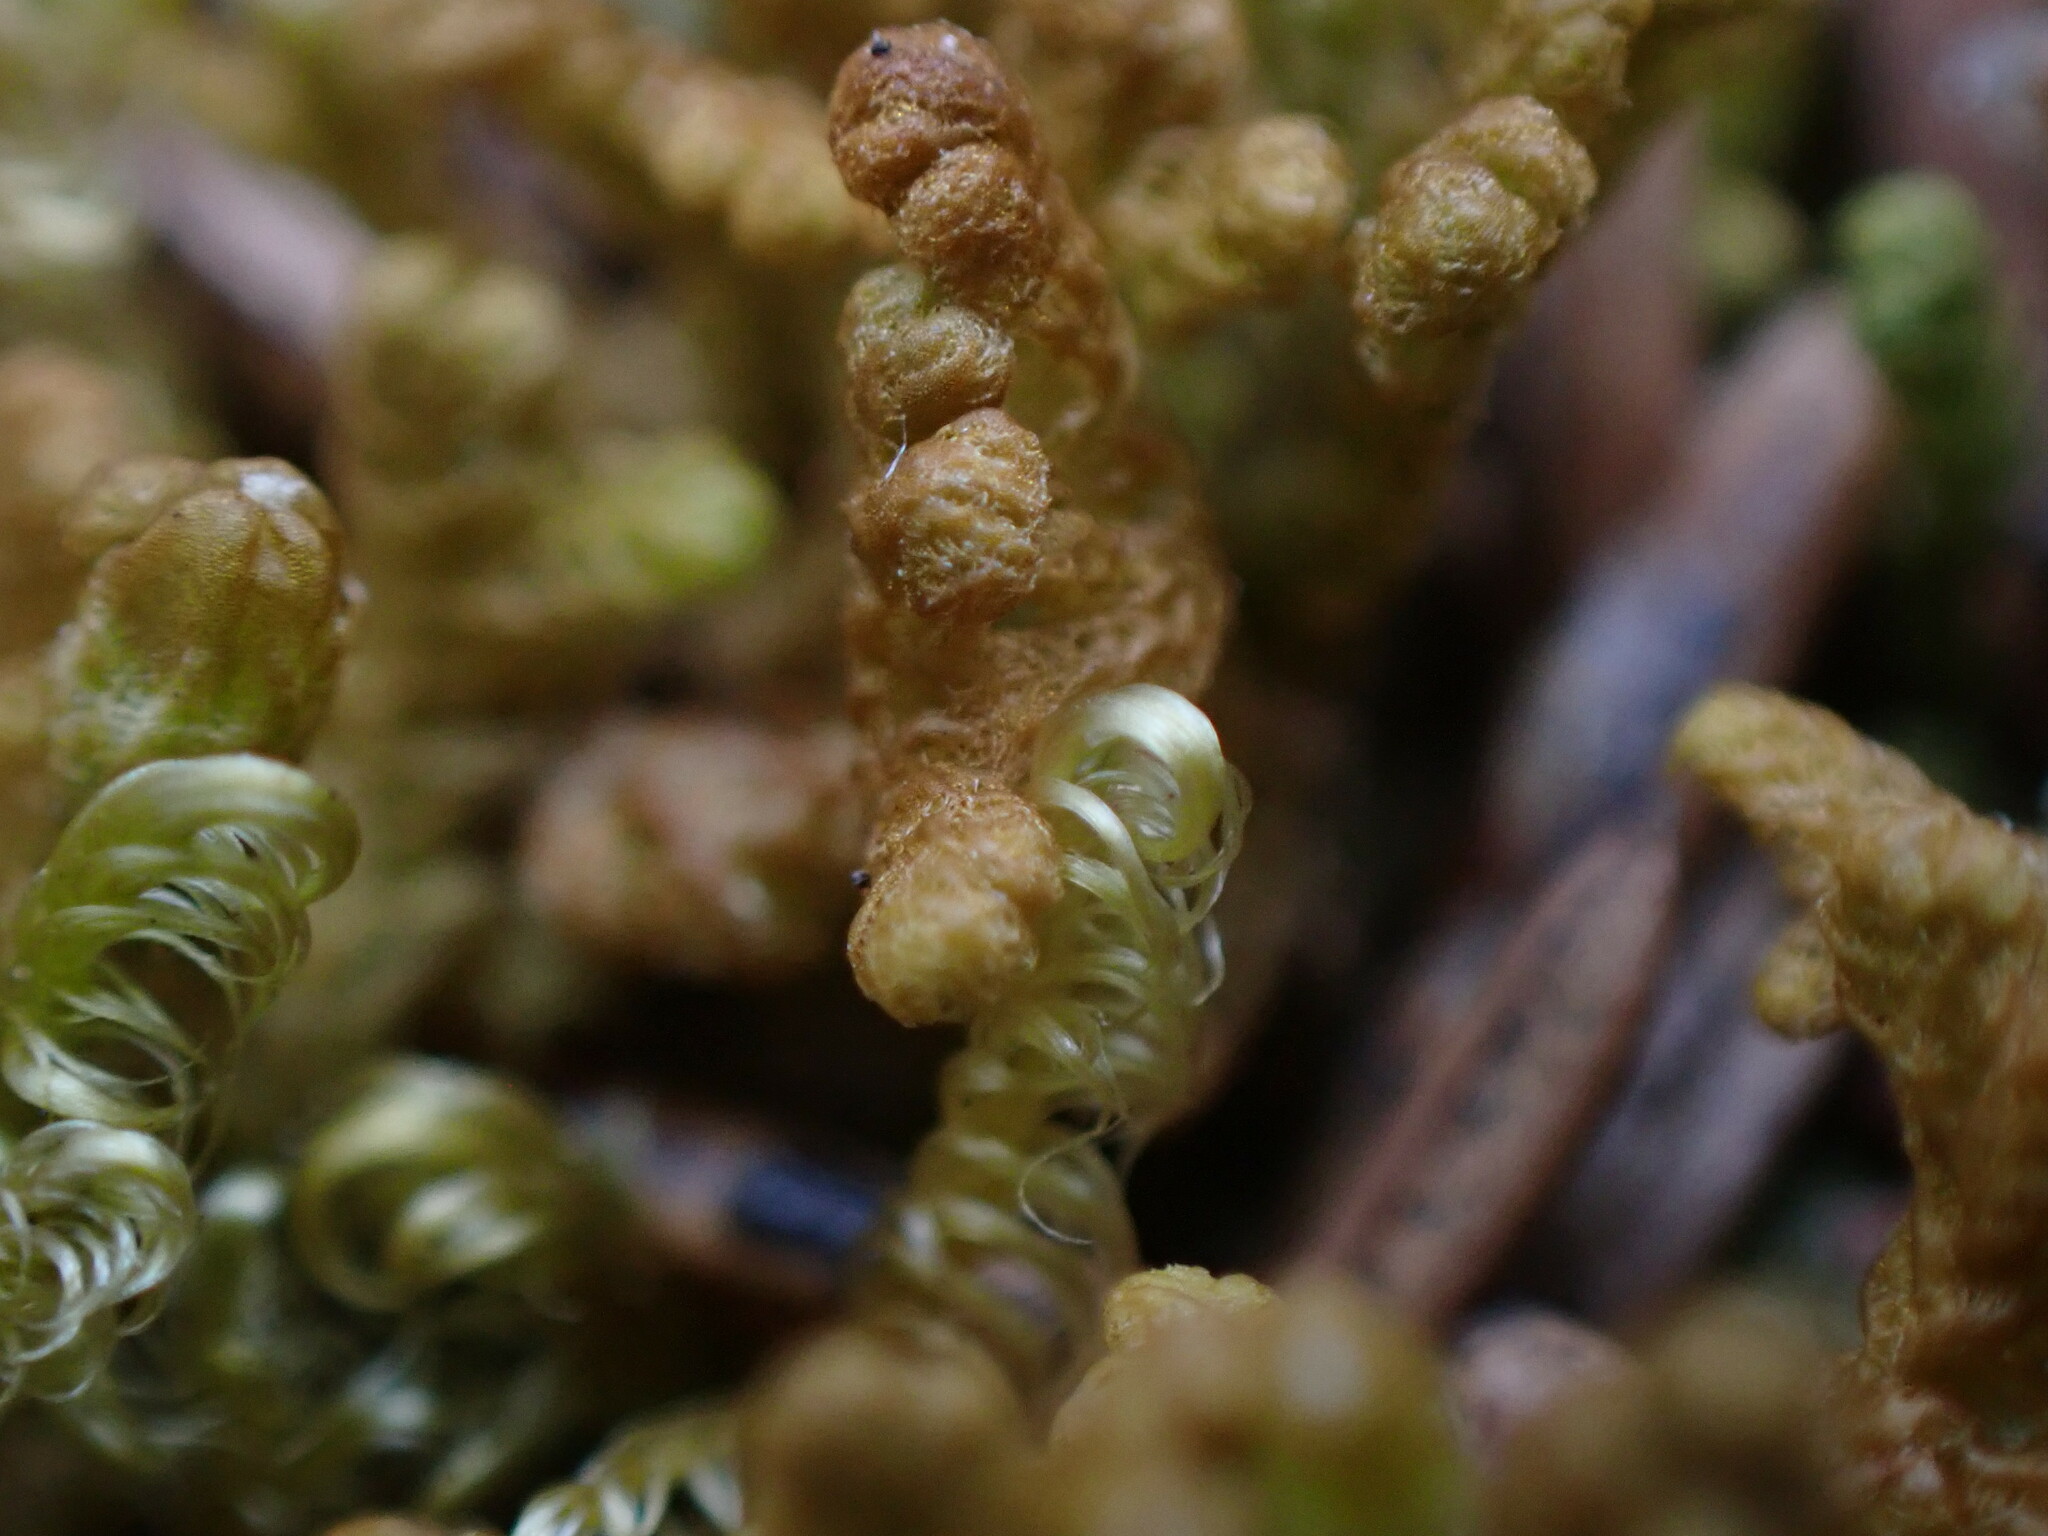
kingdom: Plantae
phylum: Marchantiophyta
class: Jungermanniopsida
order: Ptilidiales
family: Ptilidiaceae
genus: Ptilidium
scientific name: Ptilidium ciliare
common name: Ciliate fringewort
